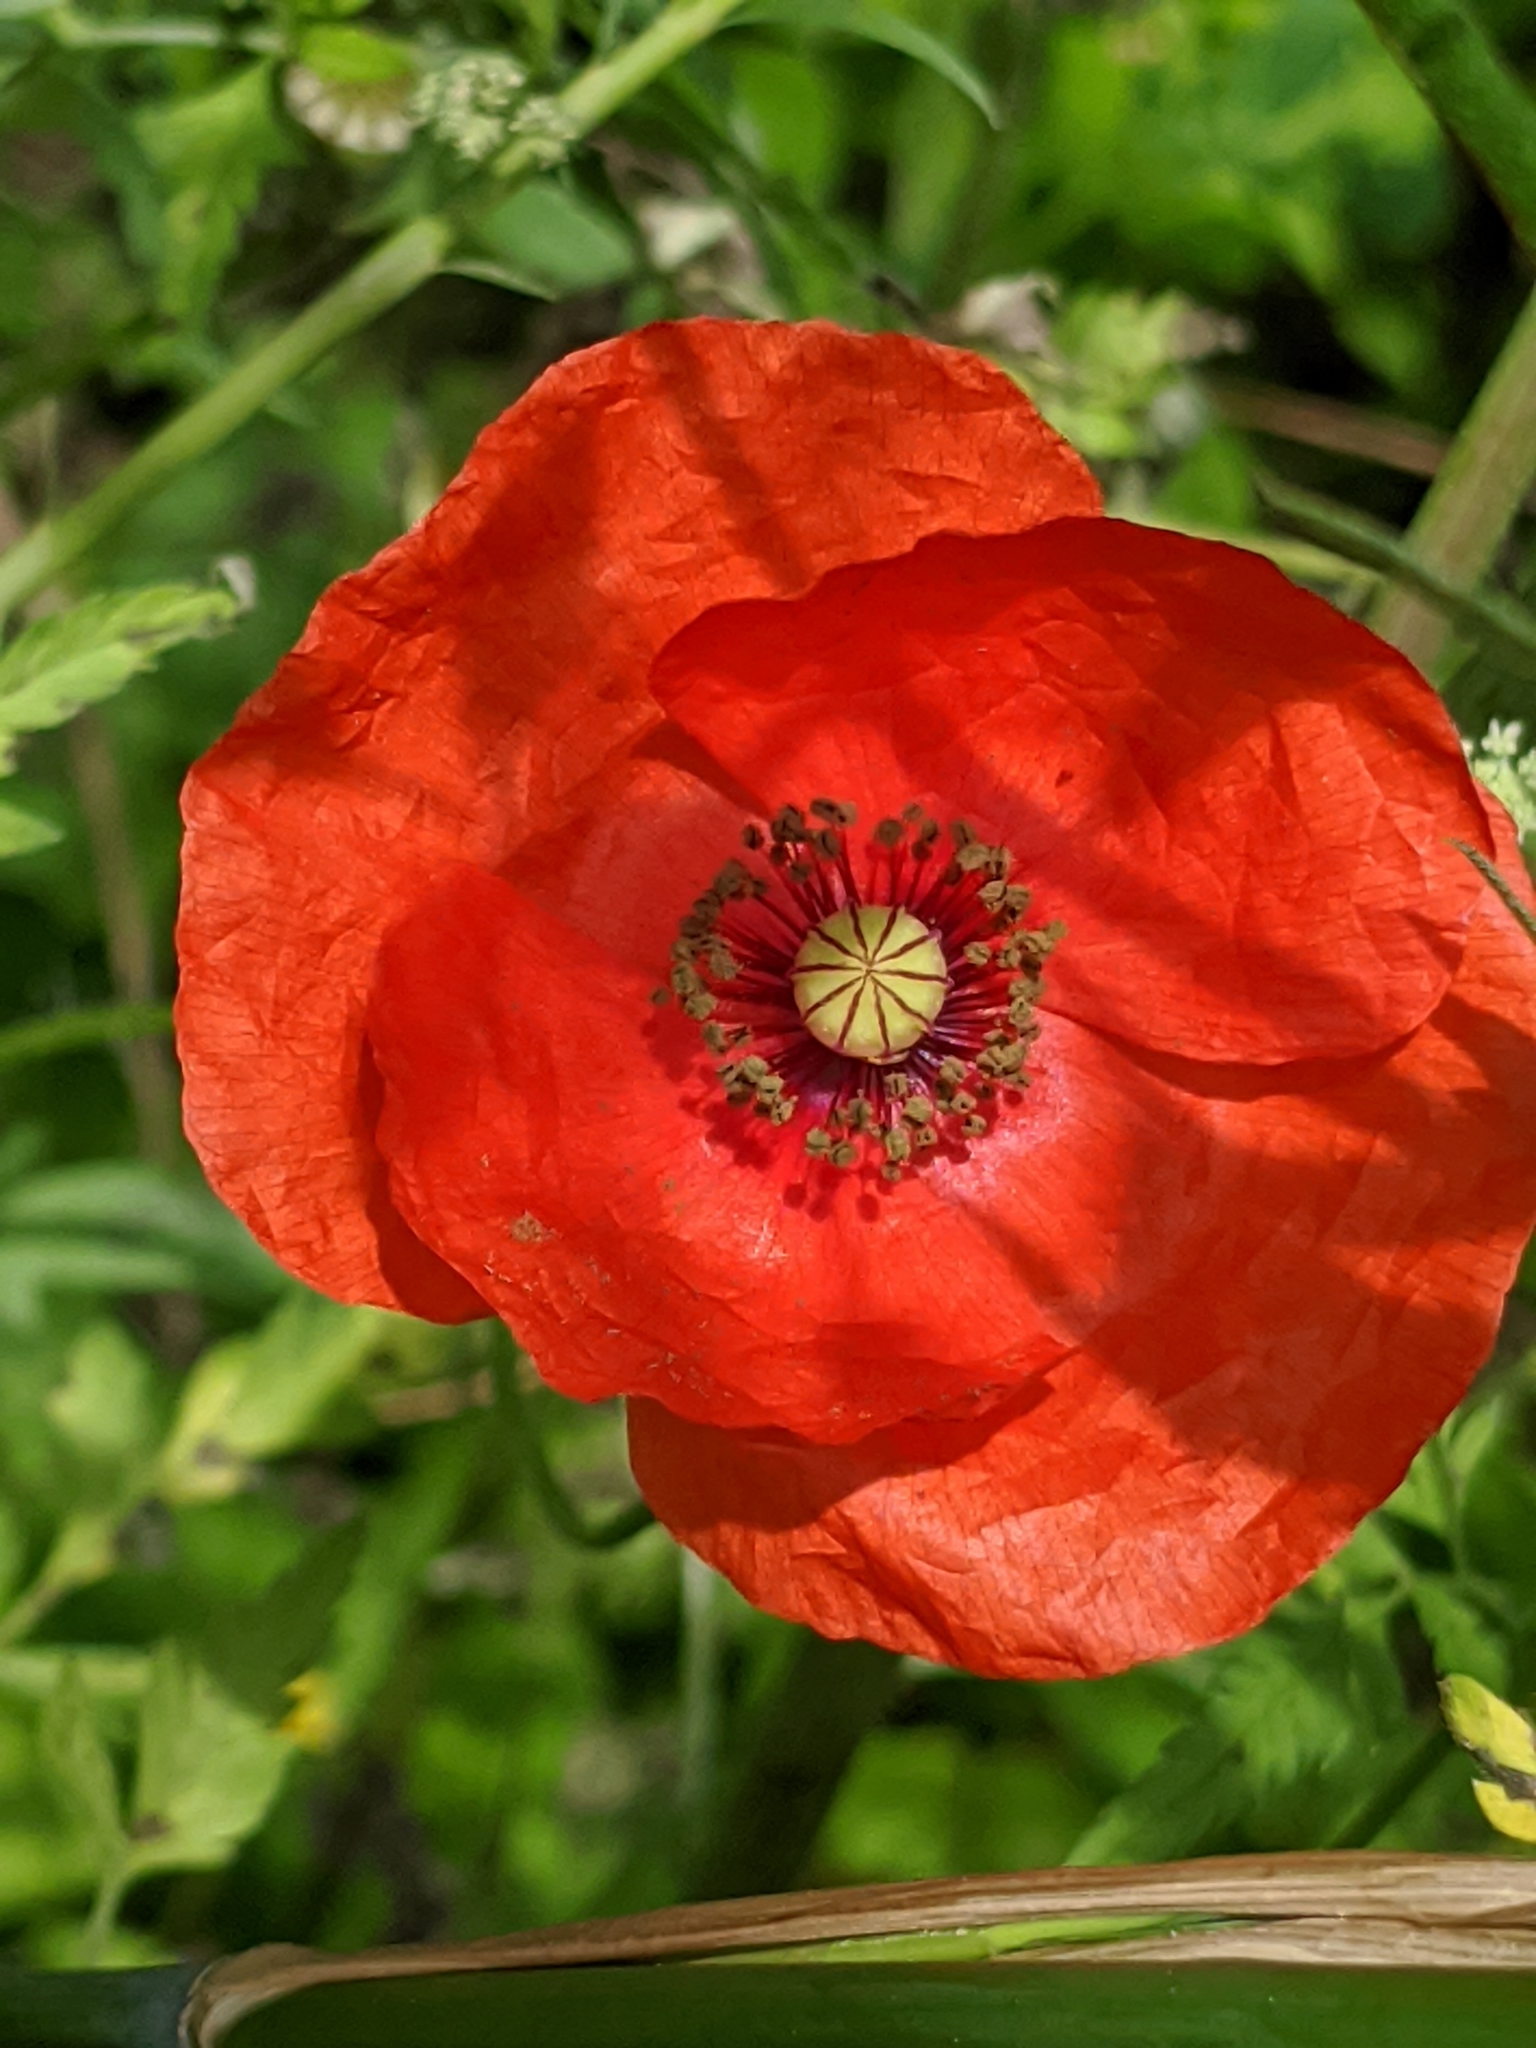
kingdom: Plantae
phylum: Tracheophyta
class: Magnoliopsida
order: Ranunculales
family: Papaveraceae
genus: Papaver
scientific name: Papaver rhoeas
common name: Corn poppy
